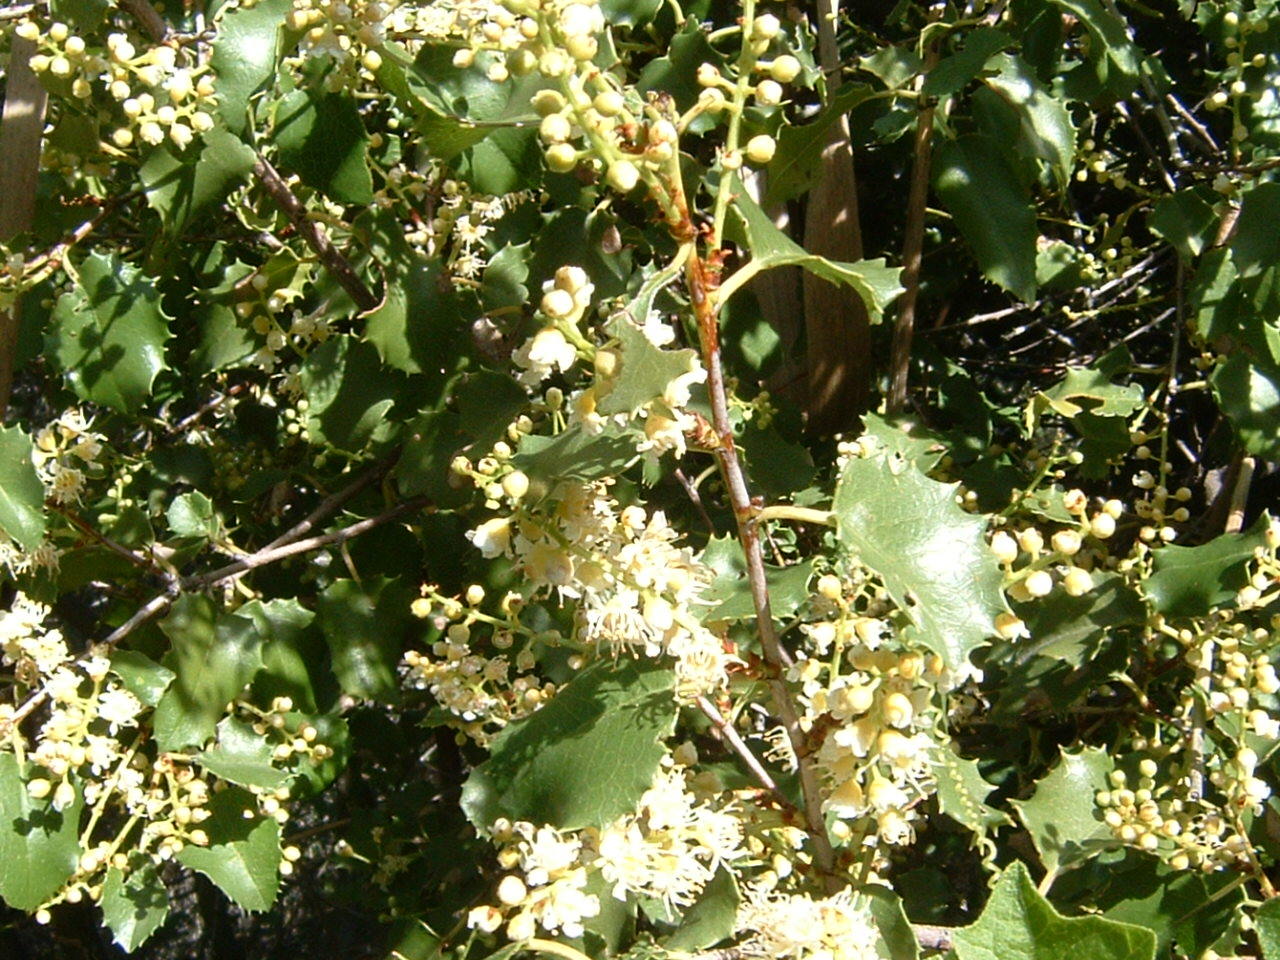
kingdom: Plantae
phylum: Tracheophyta
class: Magnoliopsida
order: Rosales
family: Rosaceae
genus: Prunus
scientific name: Prunus ilicifolia
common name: Hollyleaf cherry
